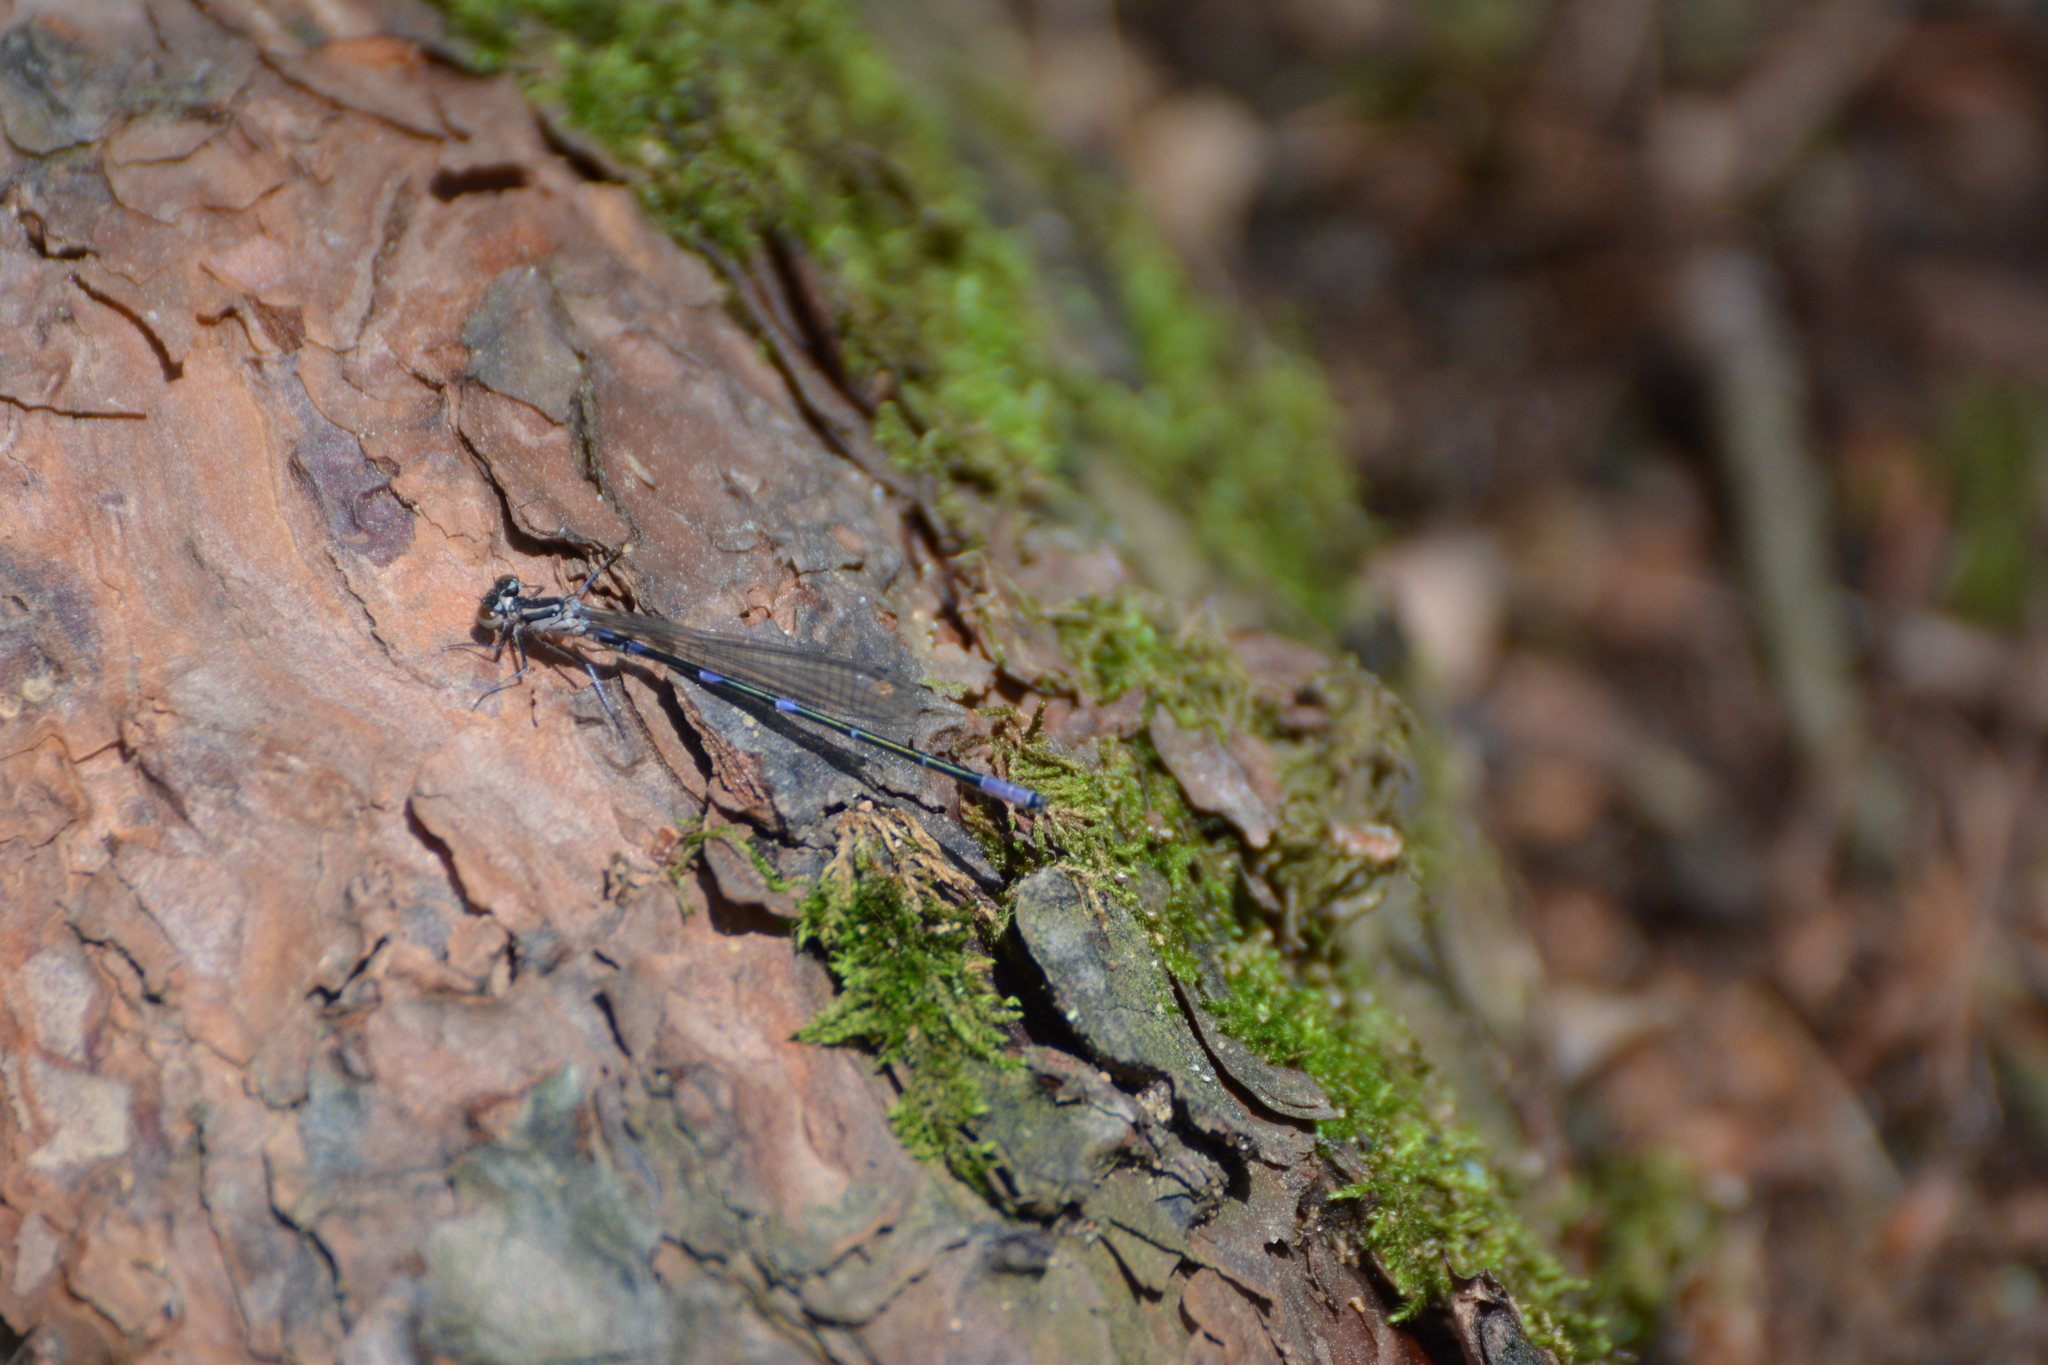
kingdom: Animalia
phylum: Arthropoda
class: Insecta
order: Odonata
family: Coenagrionidae
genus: Coenagrion
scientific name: Coenagrion pulchellum
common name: Variable bluet
